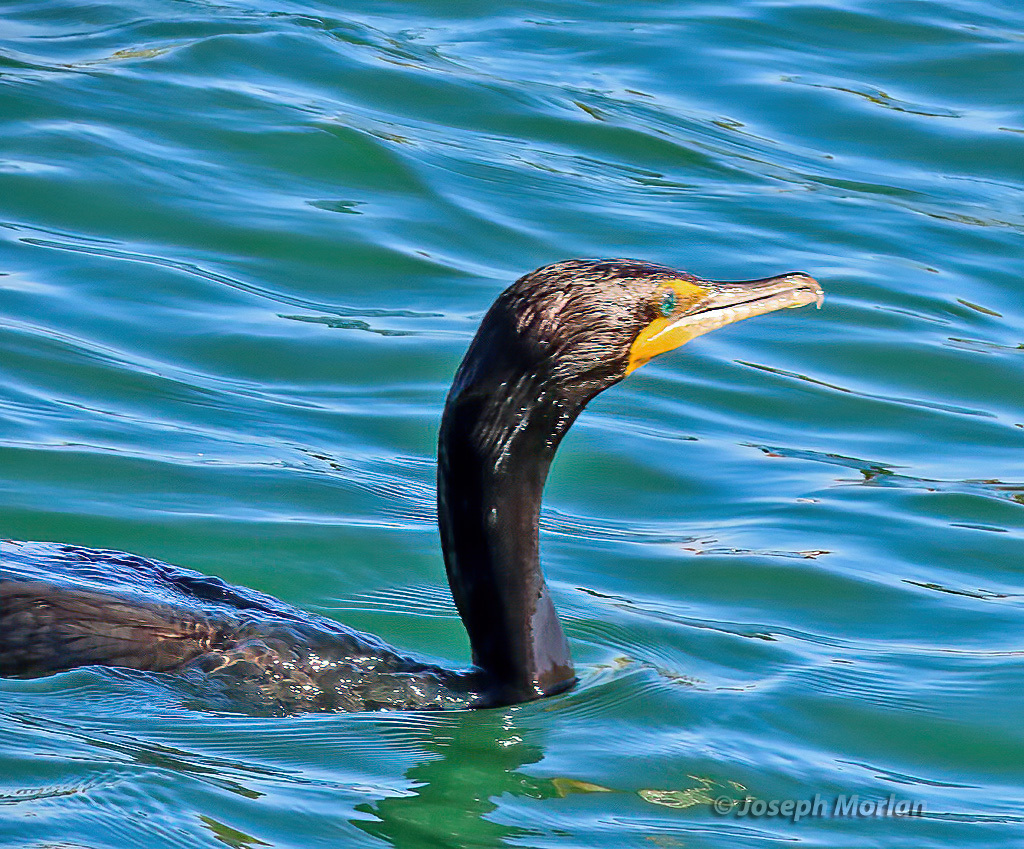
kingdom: Animalia
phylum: Chordata
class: Aves
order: Suliformes
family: Phalacrocoracidae
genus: Phalacrocorax
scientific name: Phalacrocorax auritus
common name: Double-crested cormorant
